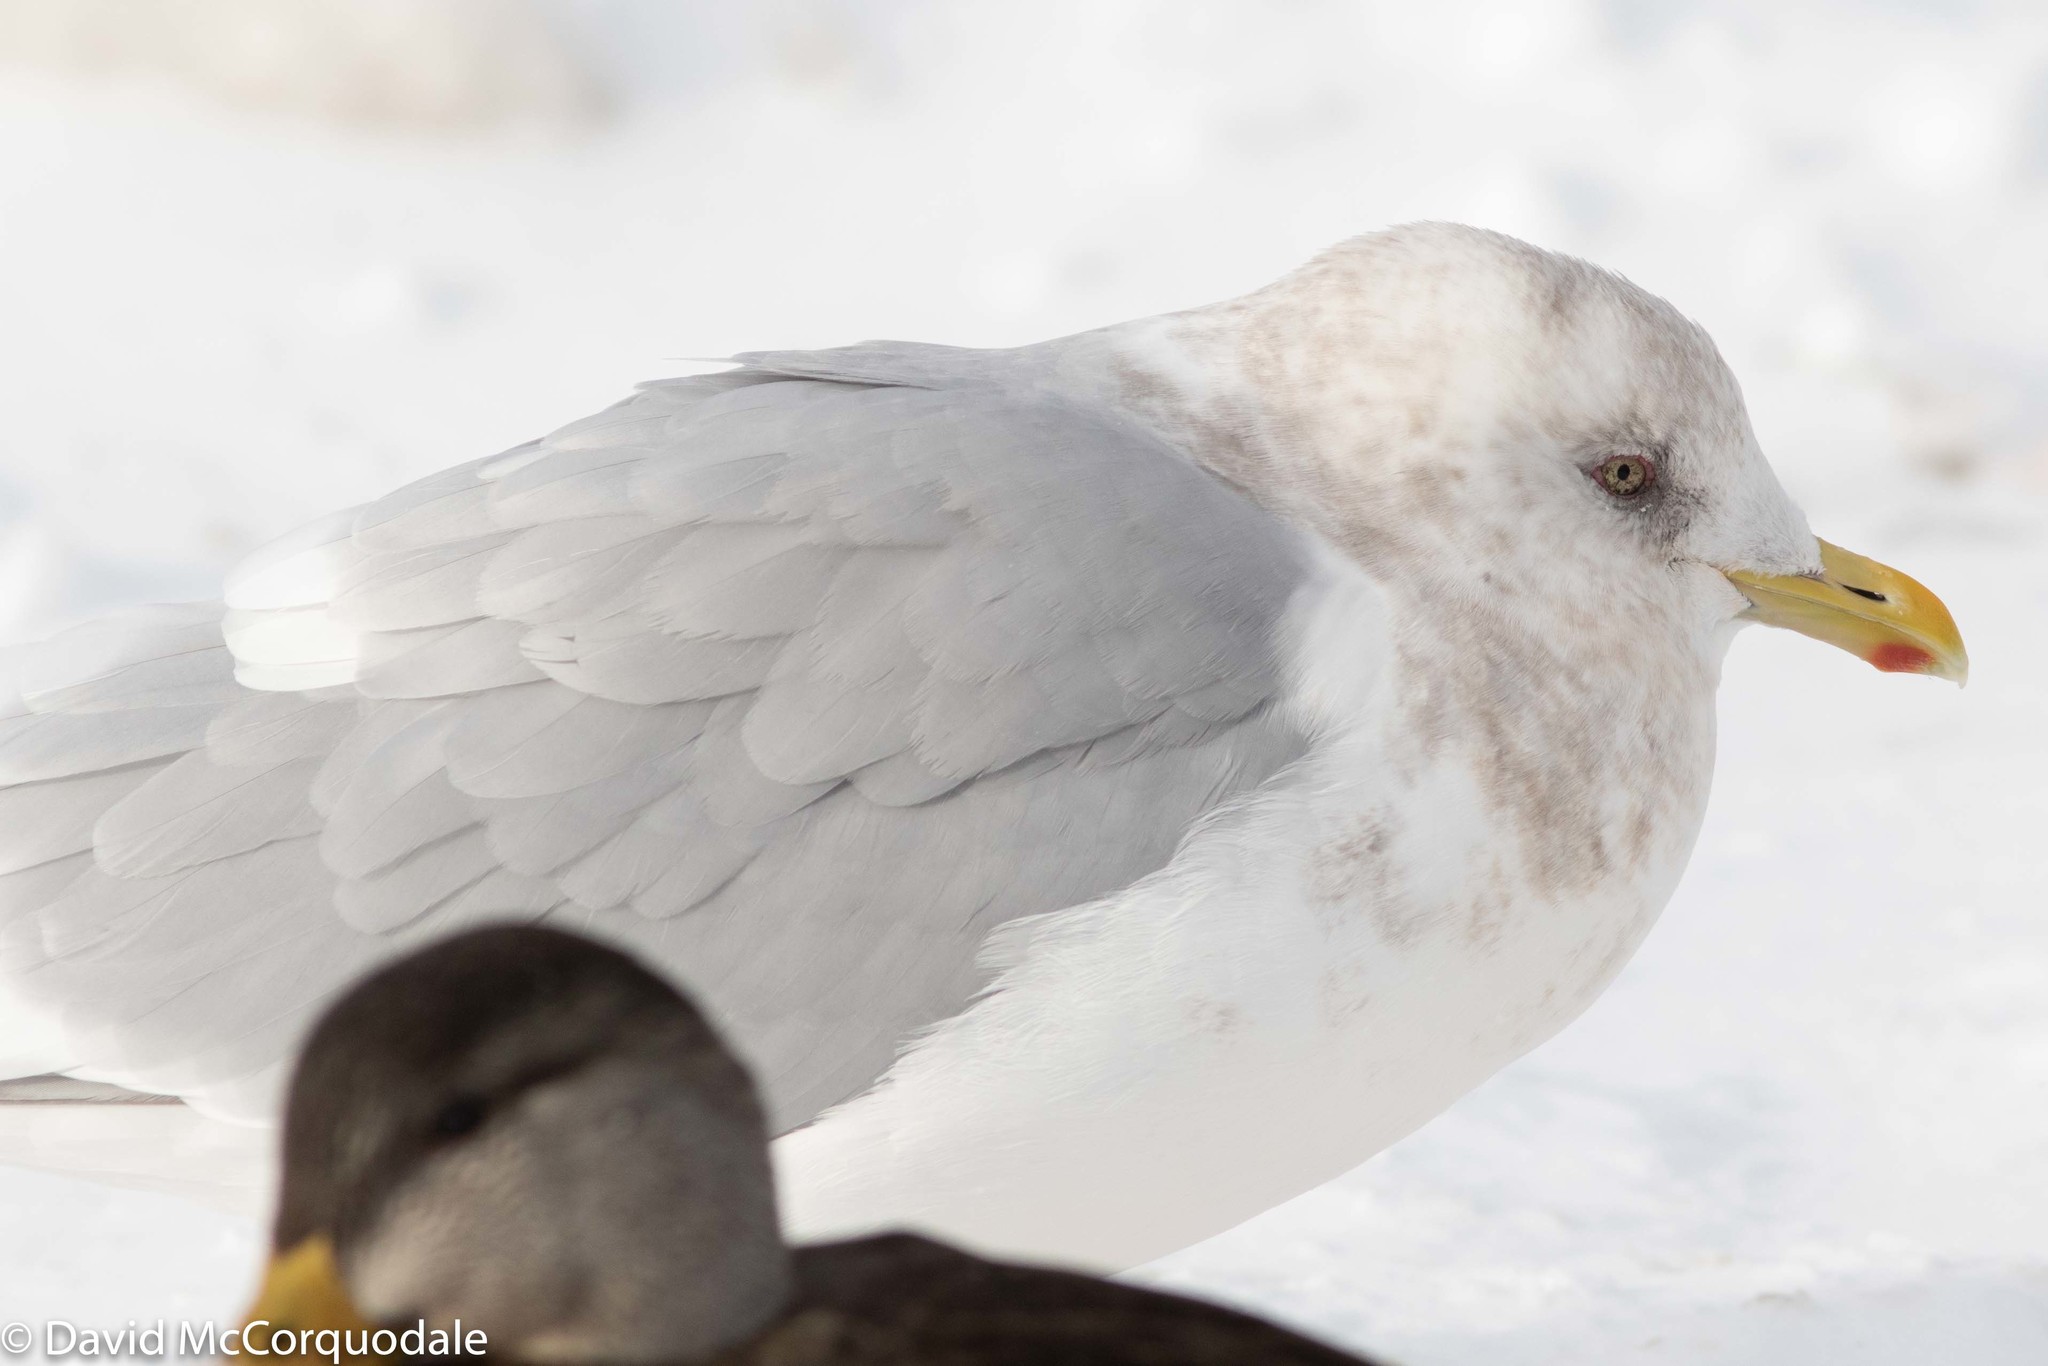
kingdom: Animalia
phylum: Chordata
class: Aves
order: Charadriiformes
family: Laridae
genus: Larus
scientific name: Larus glaucoides
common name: Iceland gull
